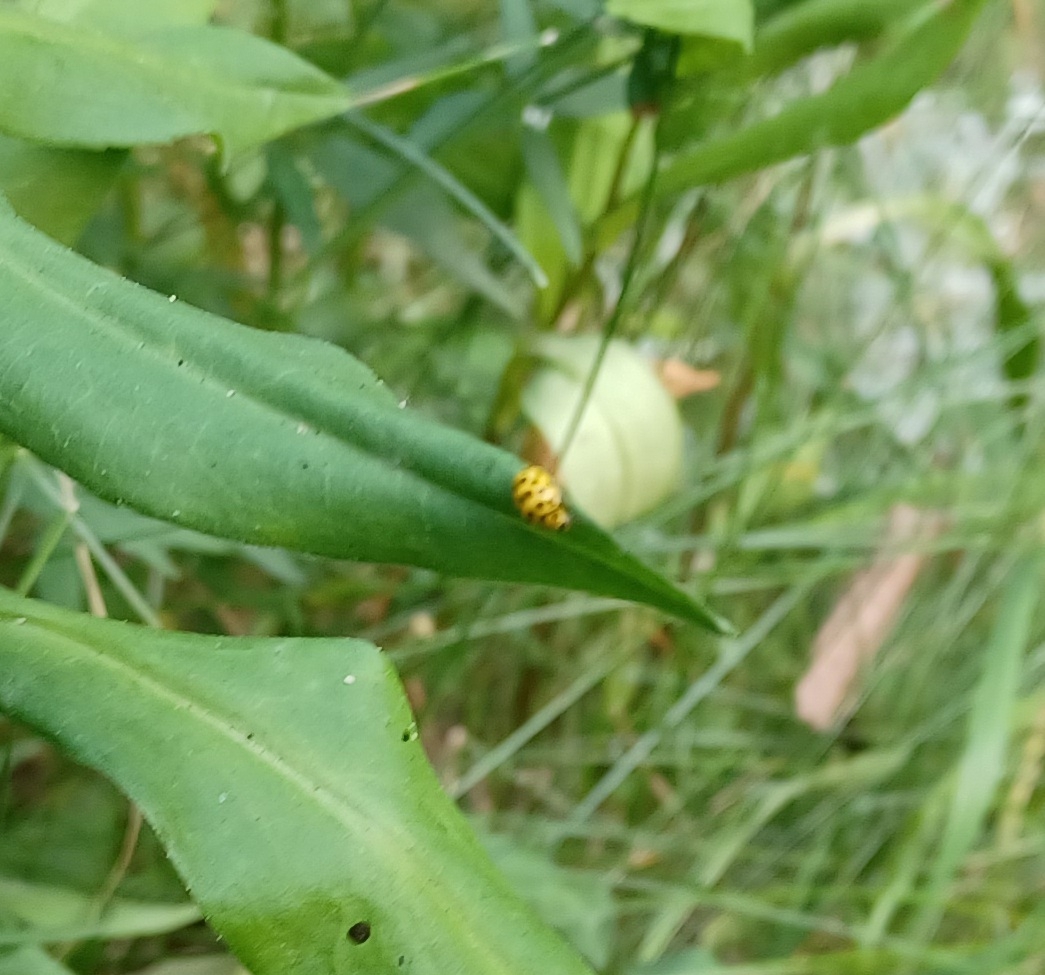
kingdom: Animalia
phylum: Arthropoda
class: Insecta
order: Coleoptera
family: Coccinellidae
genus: Psyllobora
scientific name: Psyllobora vigintiduopunctata
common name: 22-spot ladybird
